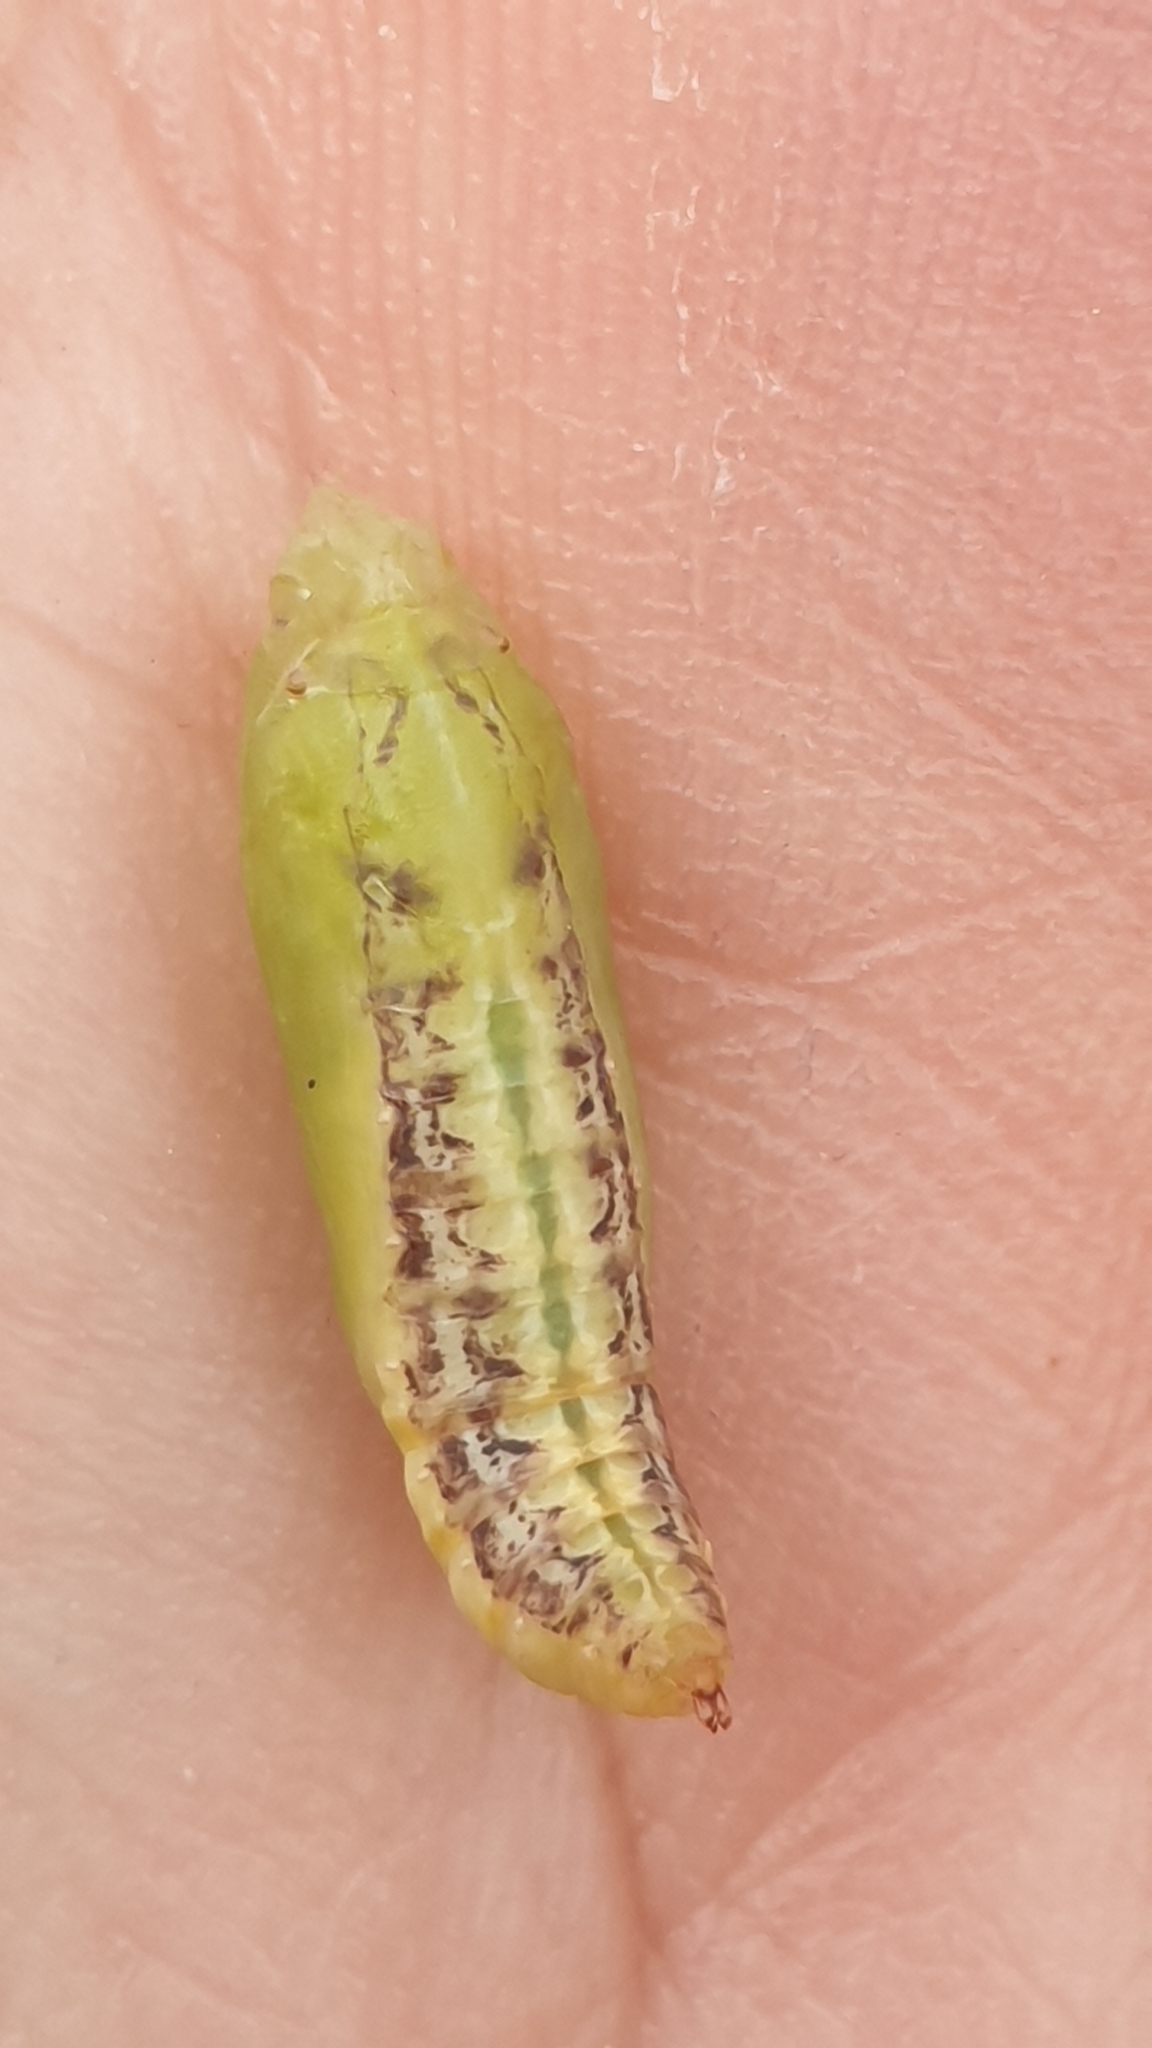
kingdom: Animalia
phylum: Arthropoda
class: Insecta
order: Lepidoptera
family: Crambidae
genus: Cydalima
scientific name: Cydalima perspectalis
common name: Box tree moth
